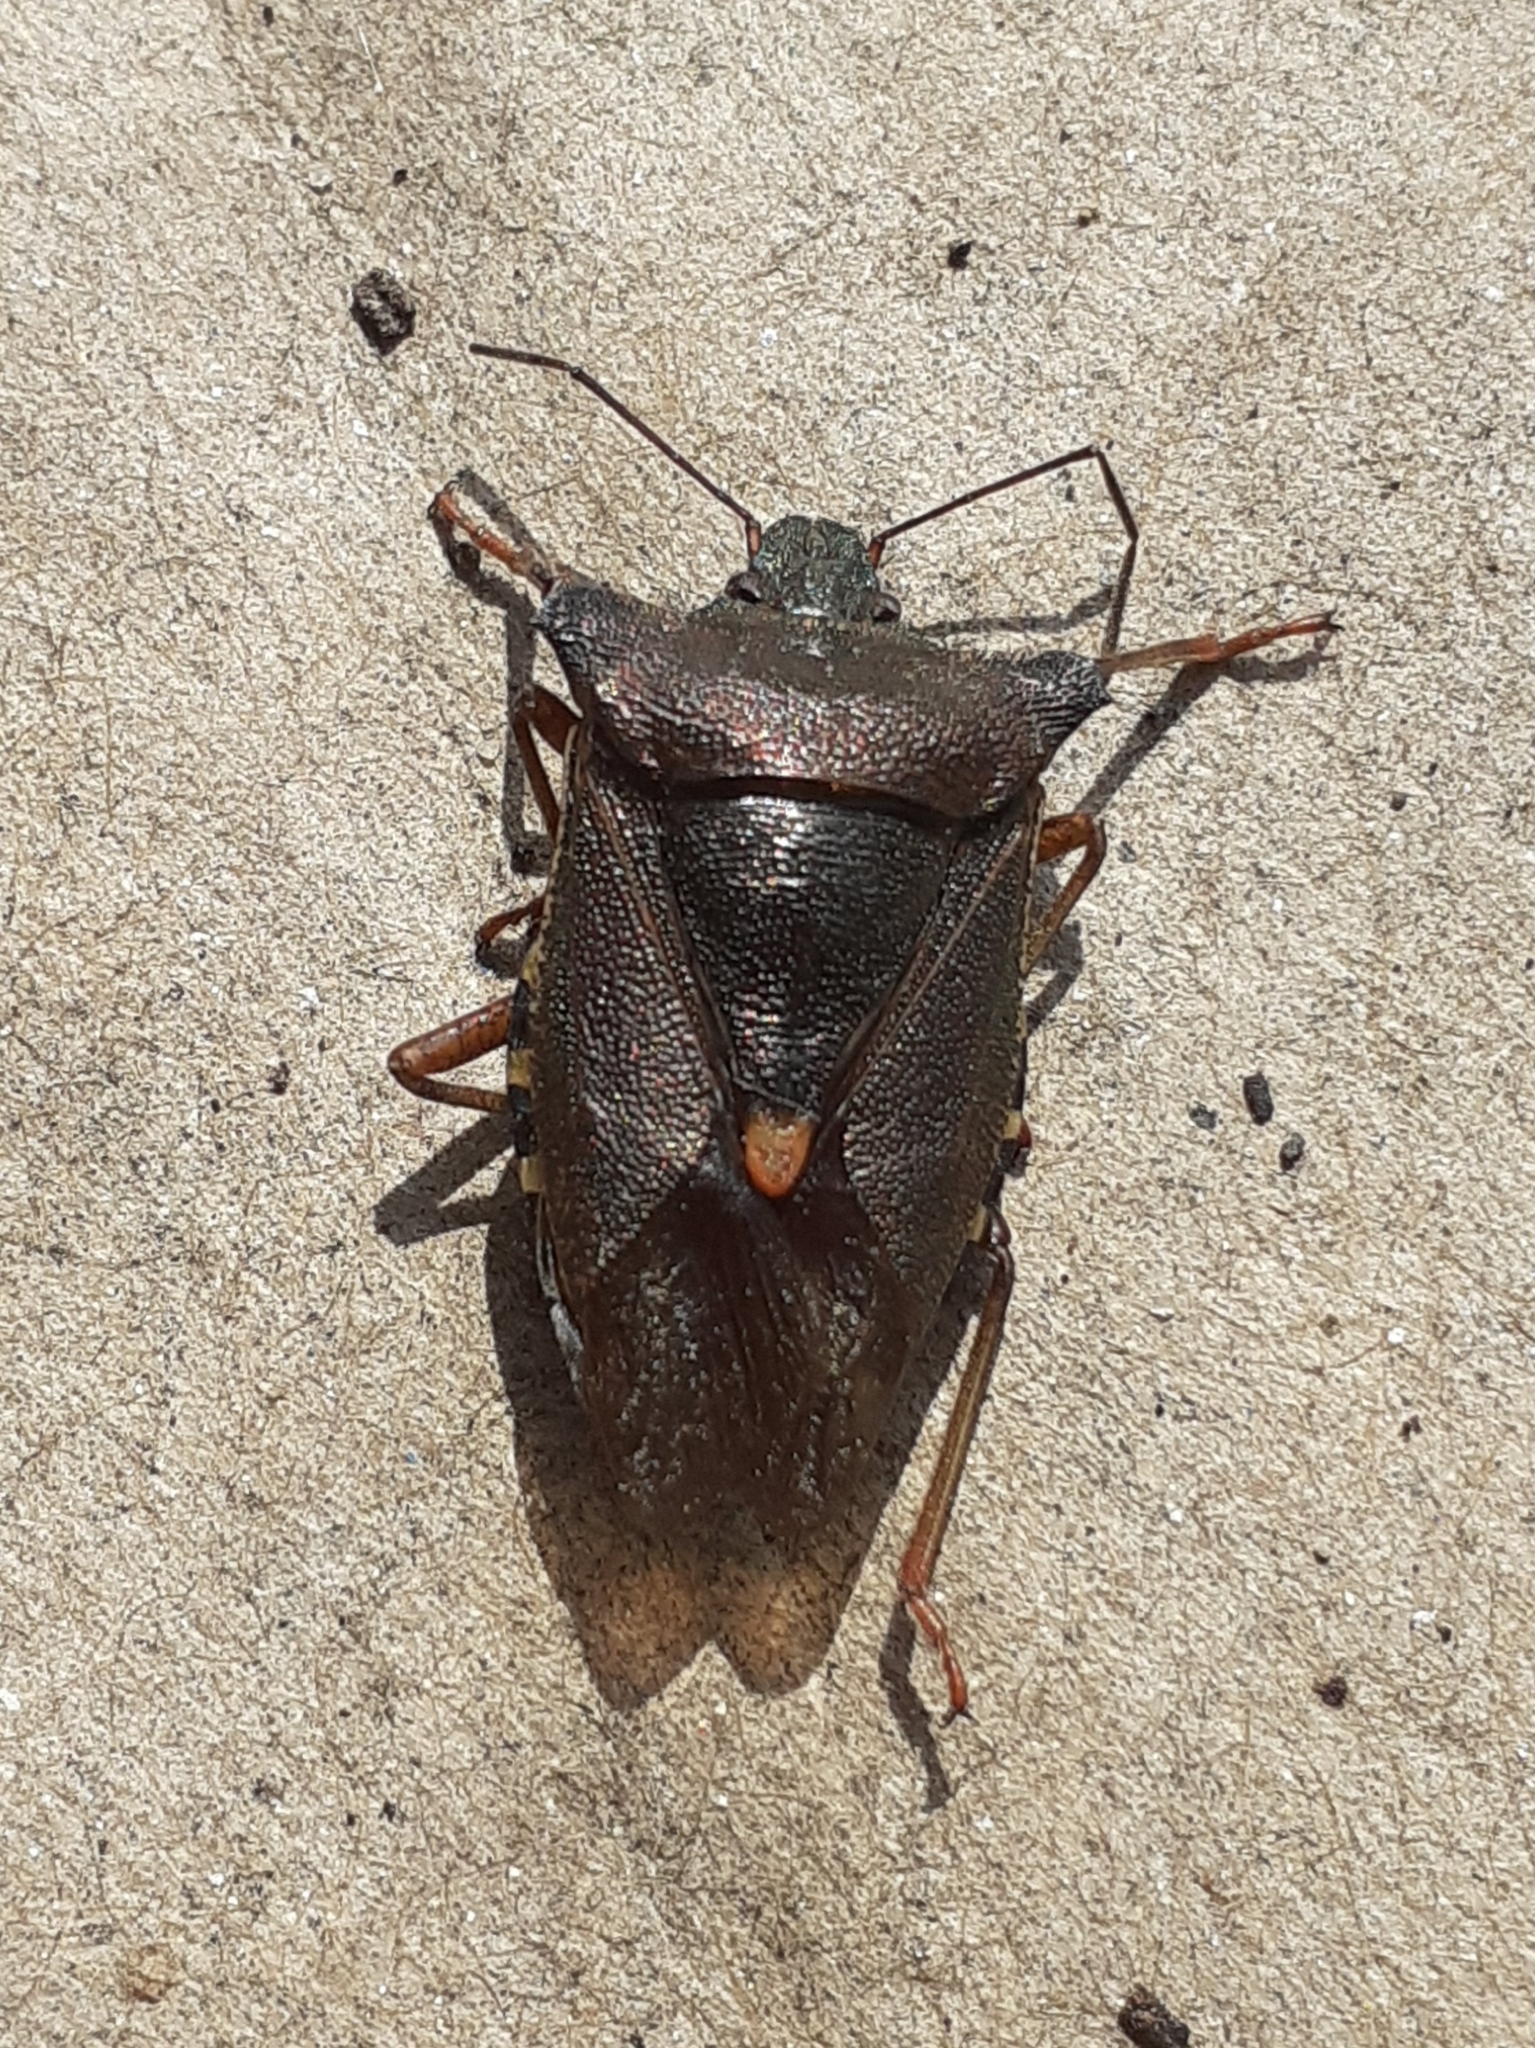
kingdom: Animalia
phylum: Arthropoda
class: Insecta
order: Hemiptera
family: Pentatomidae
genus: Pentatoma
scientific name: Pentatoma rufipes
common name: Forest bug
